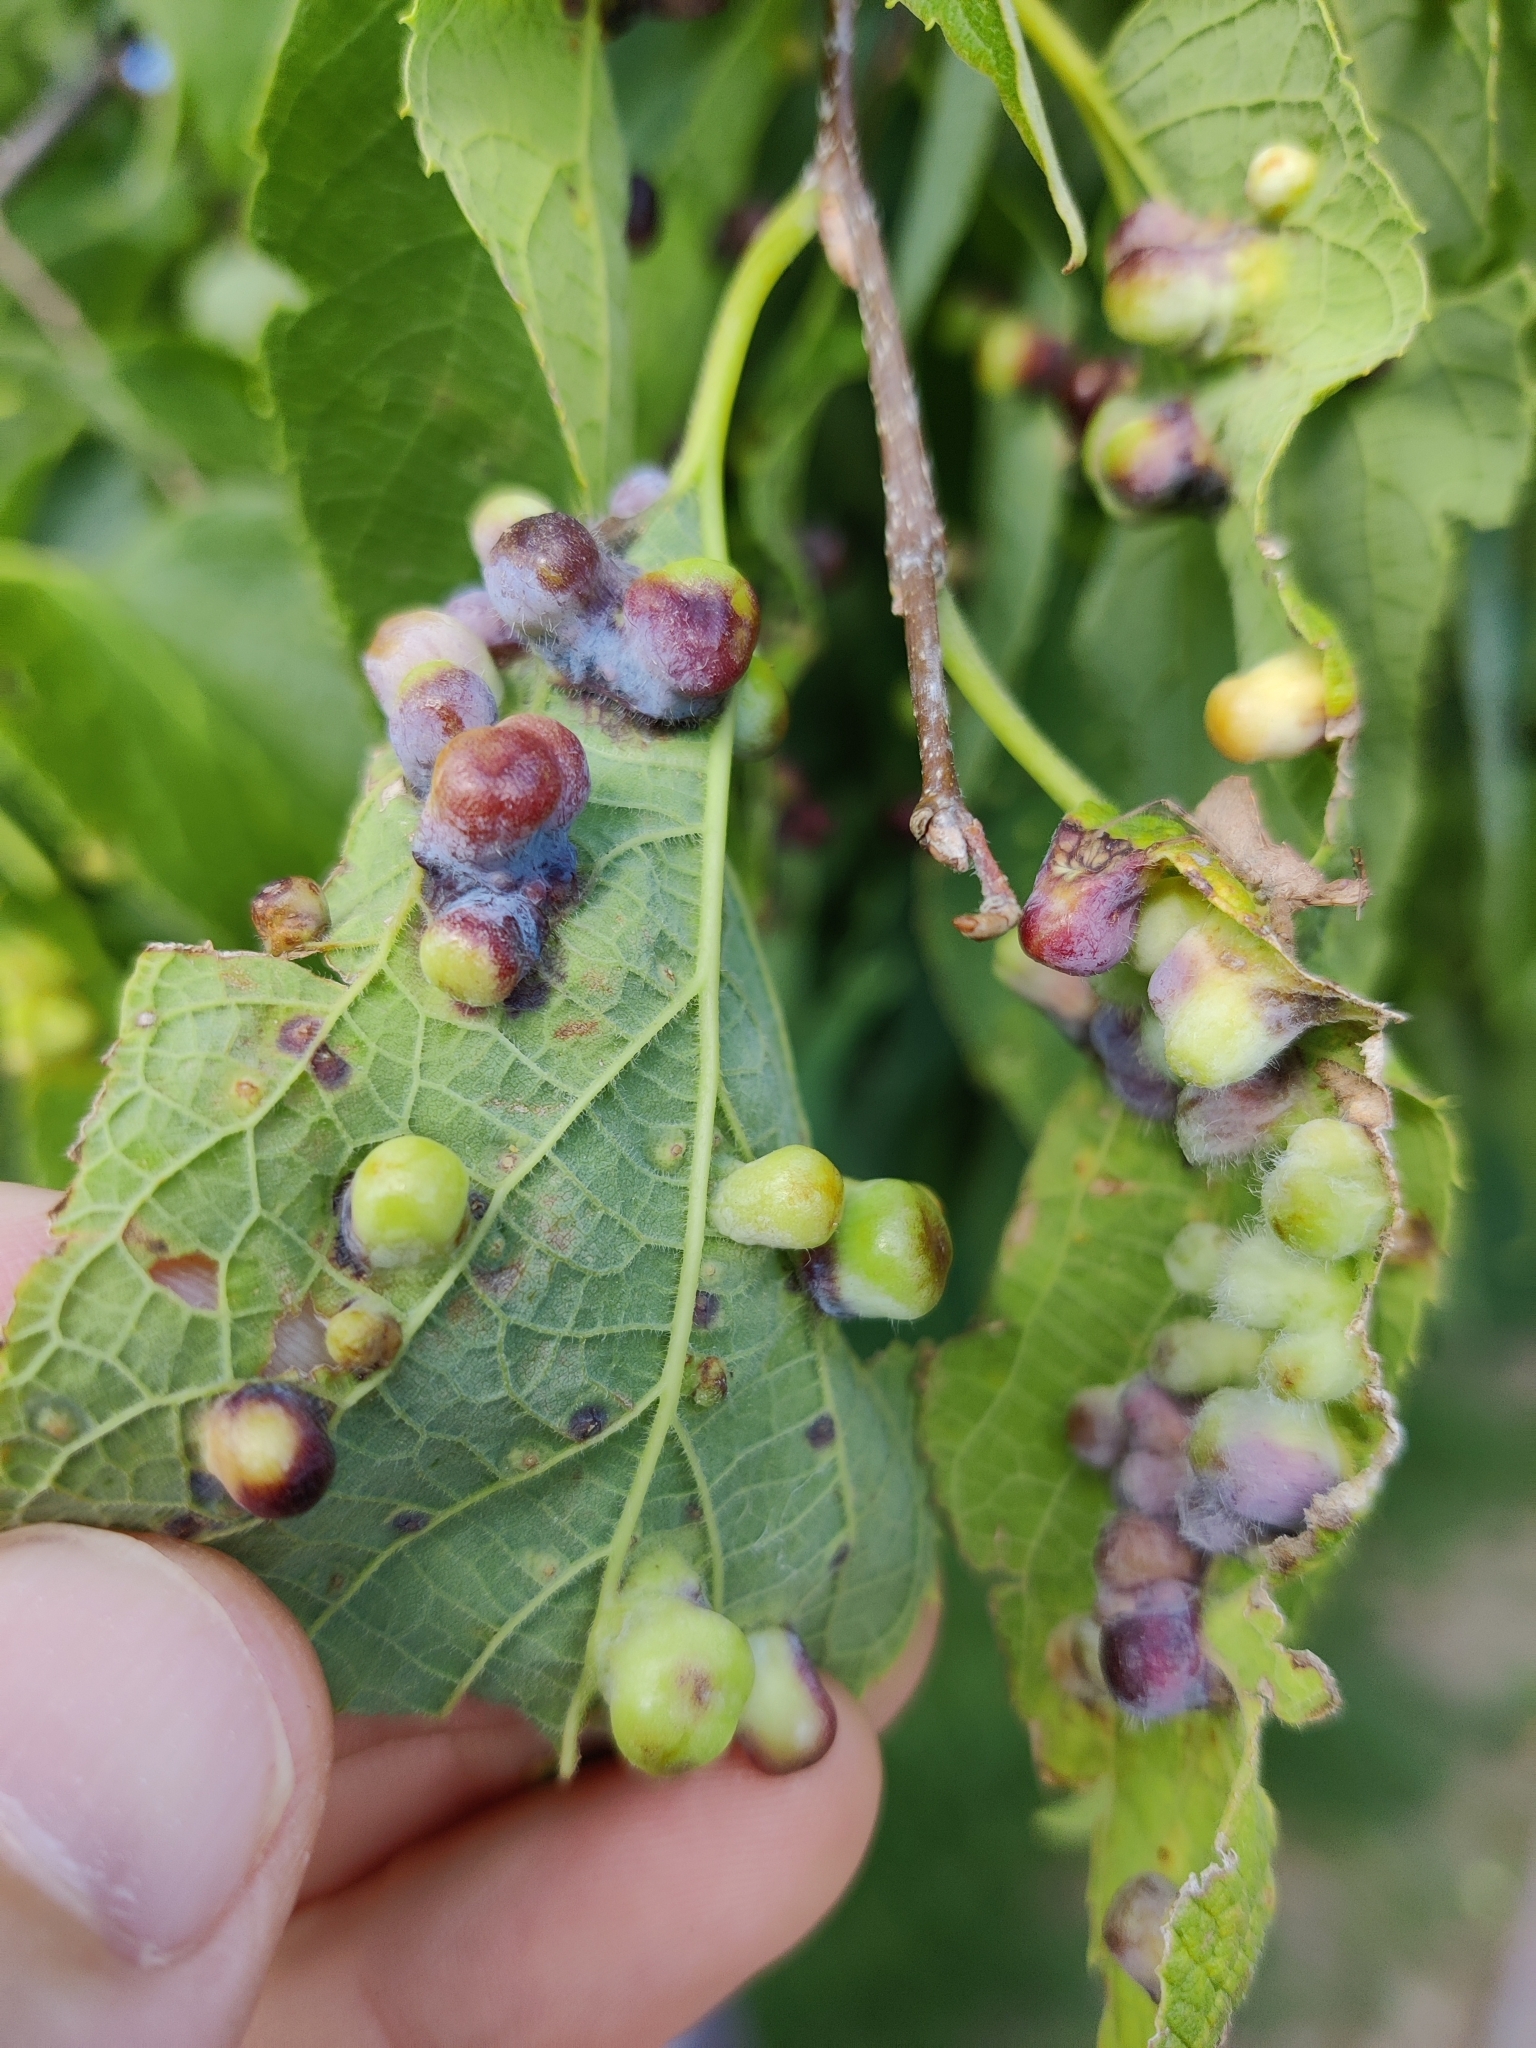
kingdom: Animalia
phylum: Arthropoda
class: Insecta
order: Hemiptera
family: Aphalaridae
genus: Pachypsylla
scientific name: Pachypsylla celtidismamma
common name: Hackberry nipplegall psyllid
